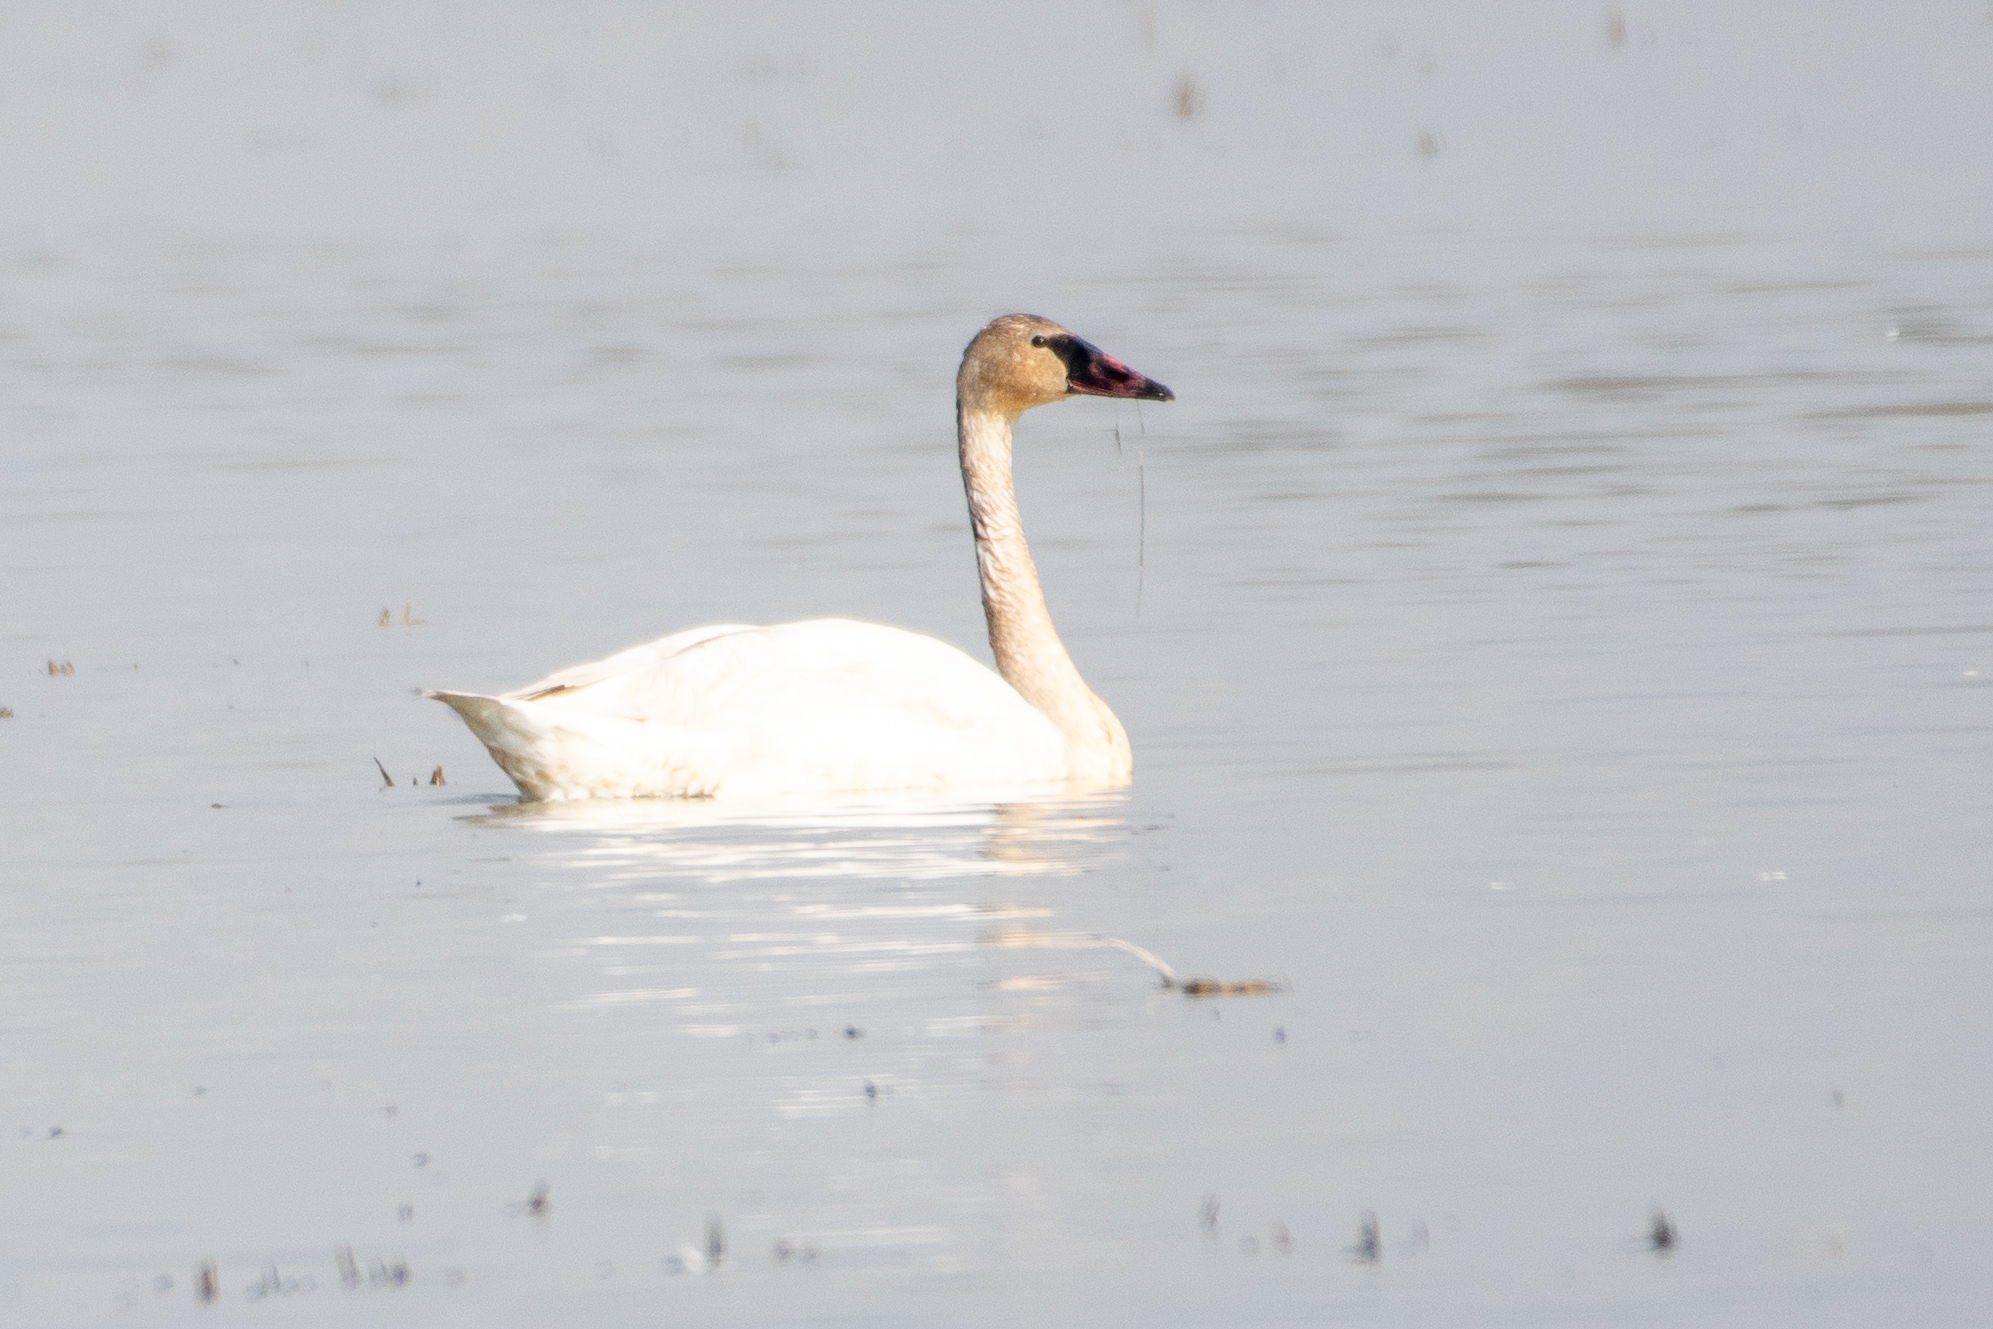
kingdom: Animalia
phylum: Chordata
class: Aves
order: Anseriformes
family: Anatidae
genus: Cygnus
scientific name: Cygnus buccinator
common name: Trumpeter swan
